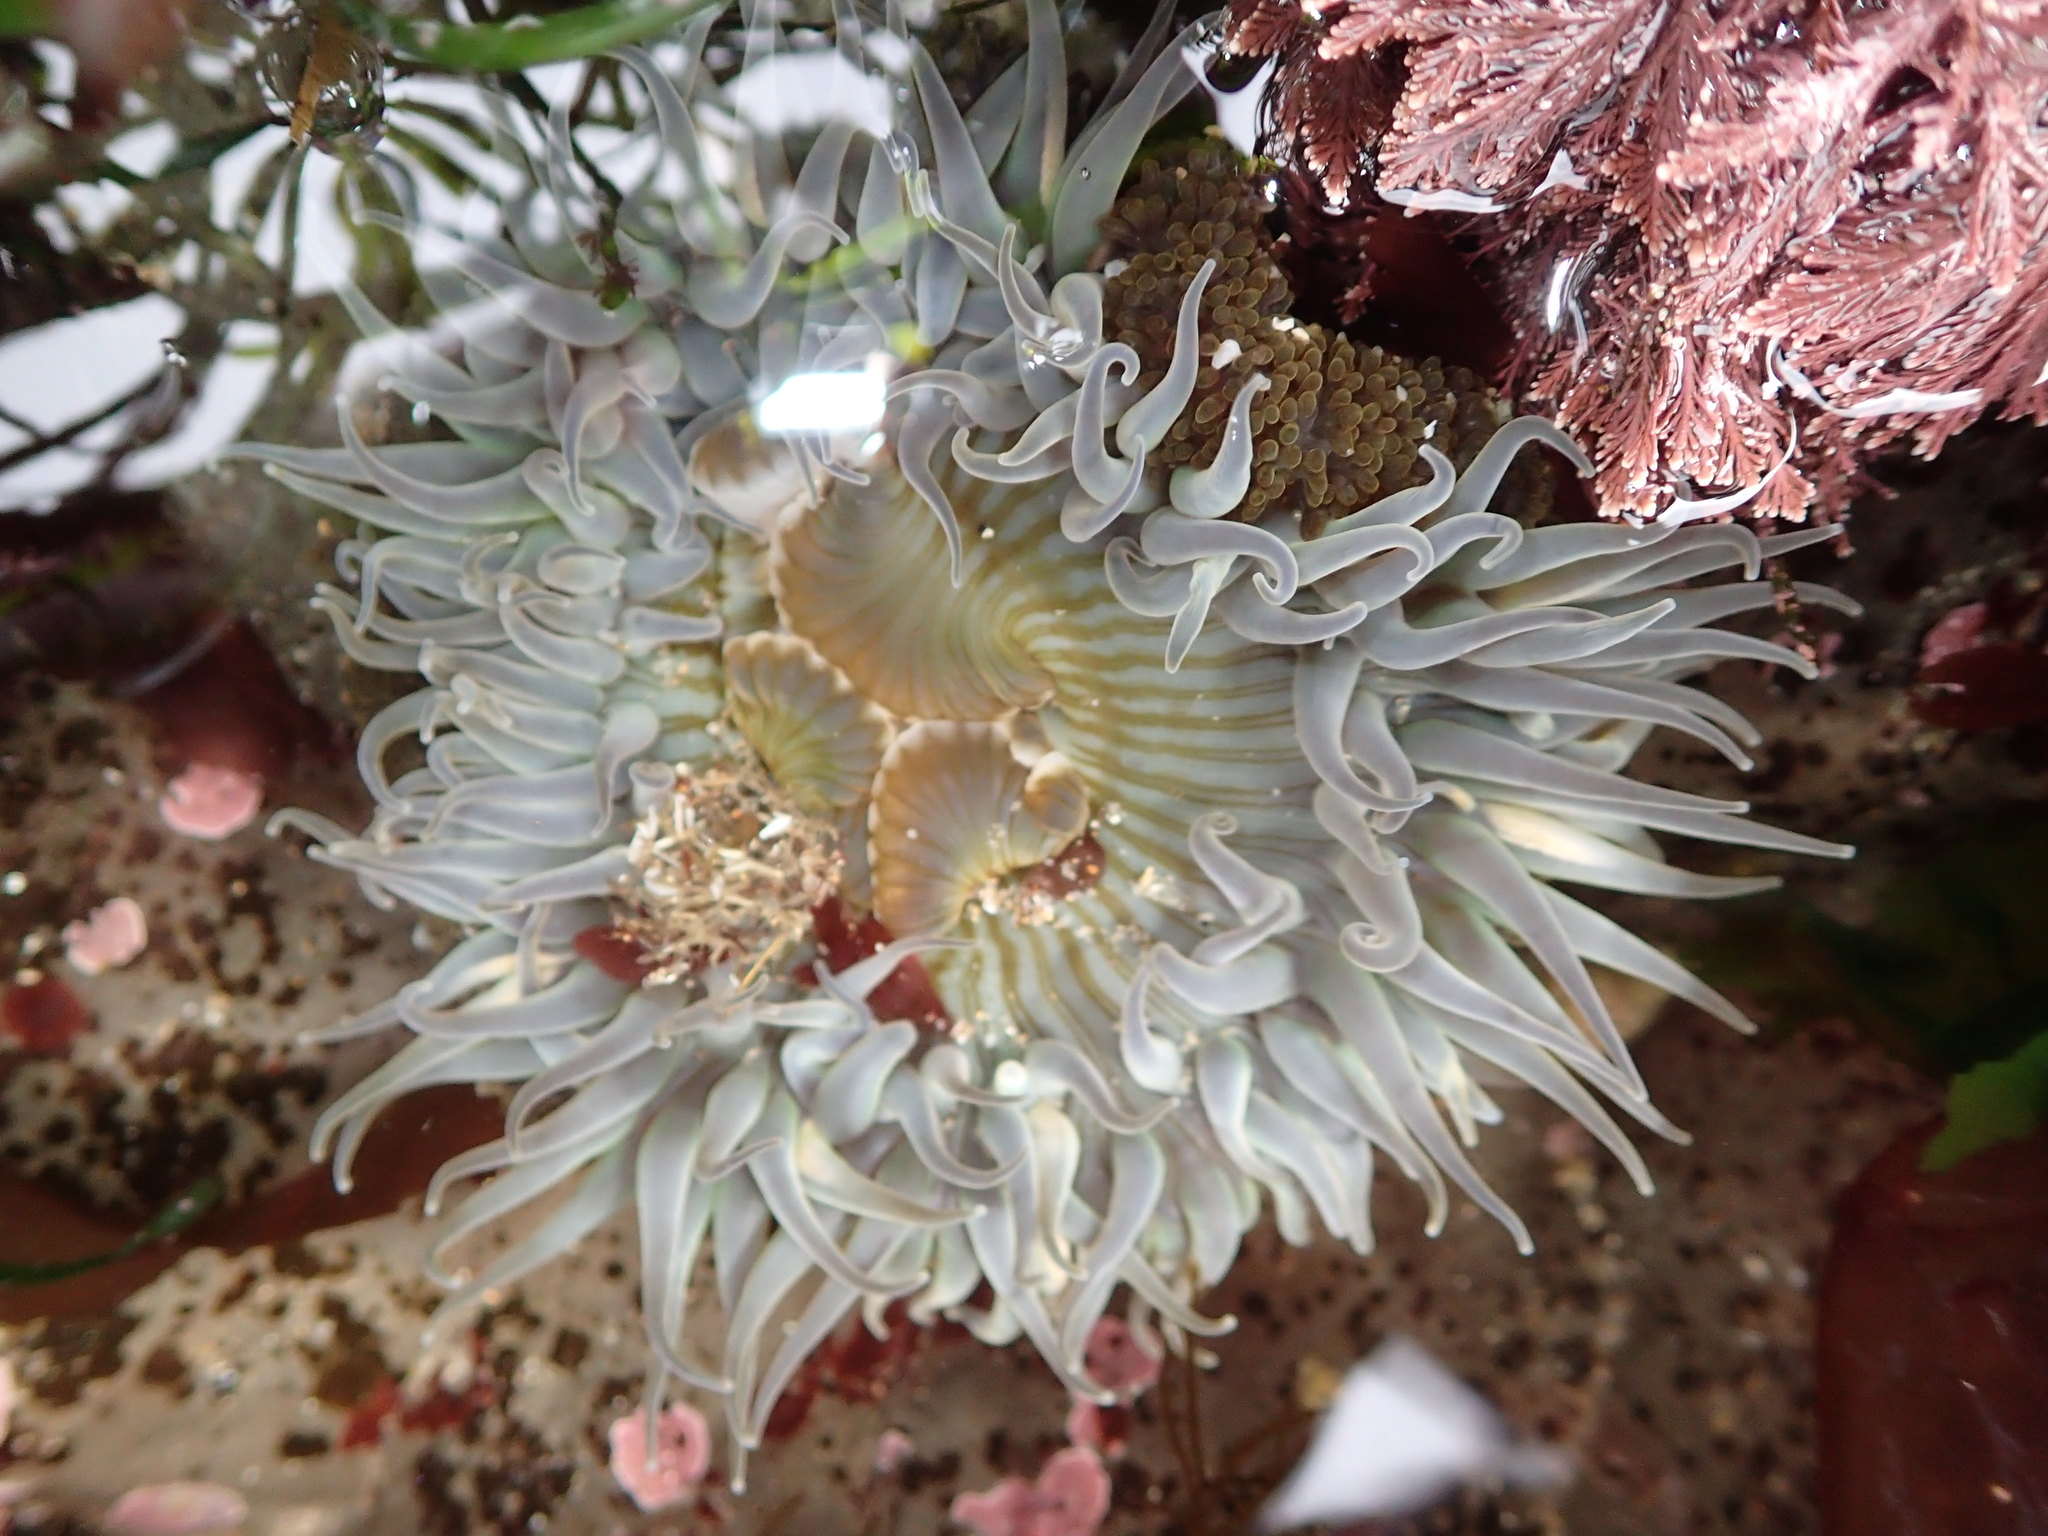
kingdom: Animalia
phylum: Cnidaria
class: Anthozoa
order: Actiniaria
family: Actiniidae
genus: Anthopleura
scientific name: Anthopleura sola
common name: Sun anemone
